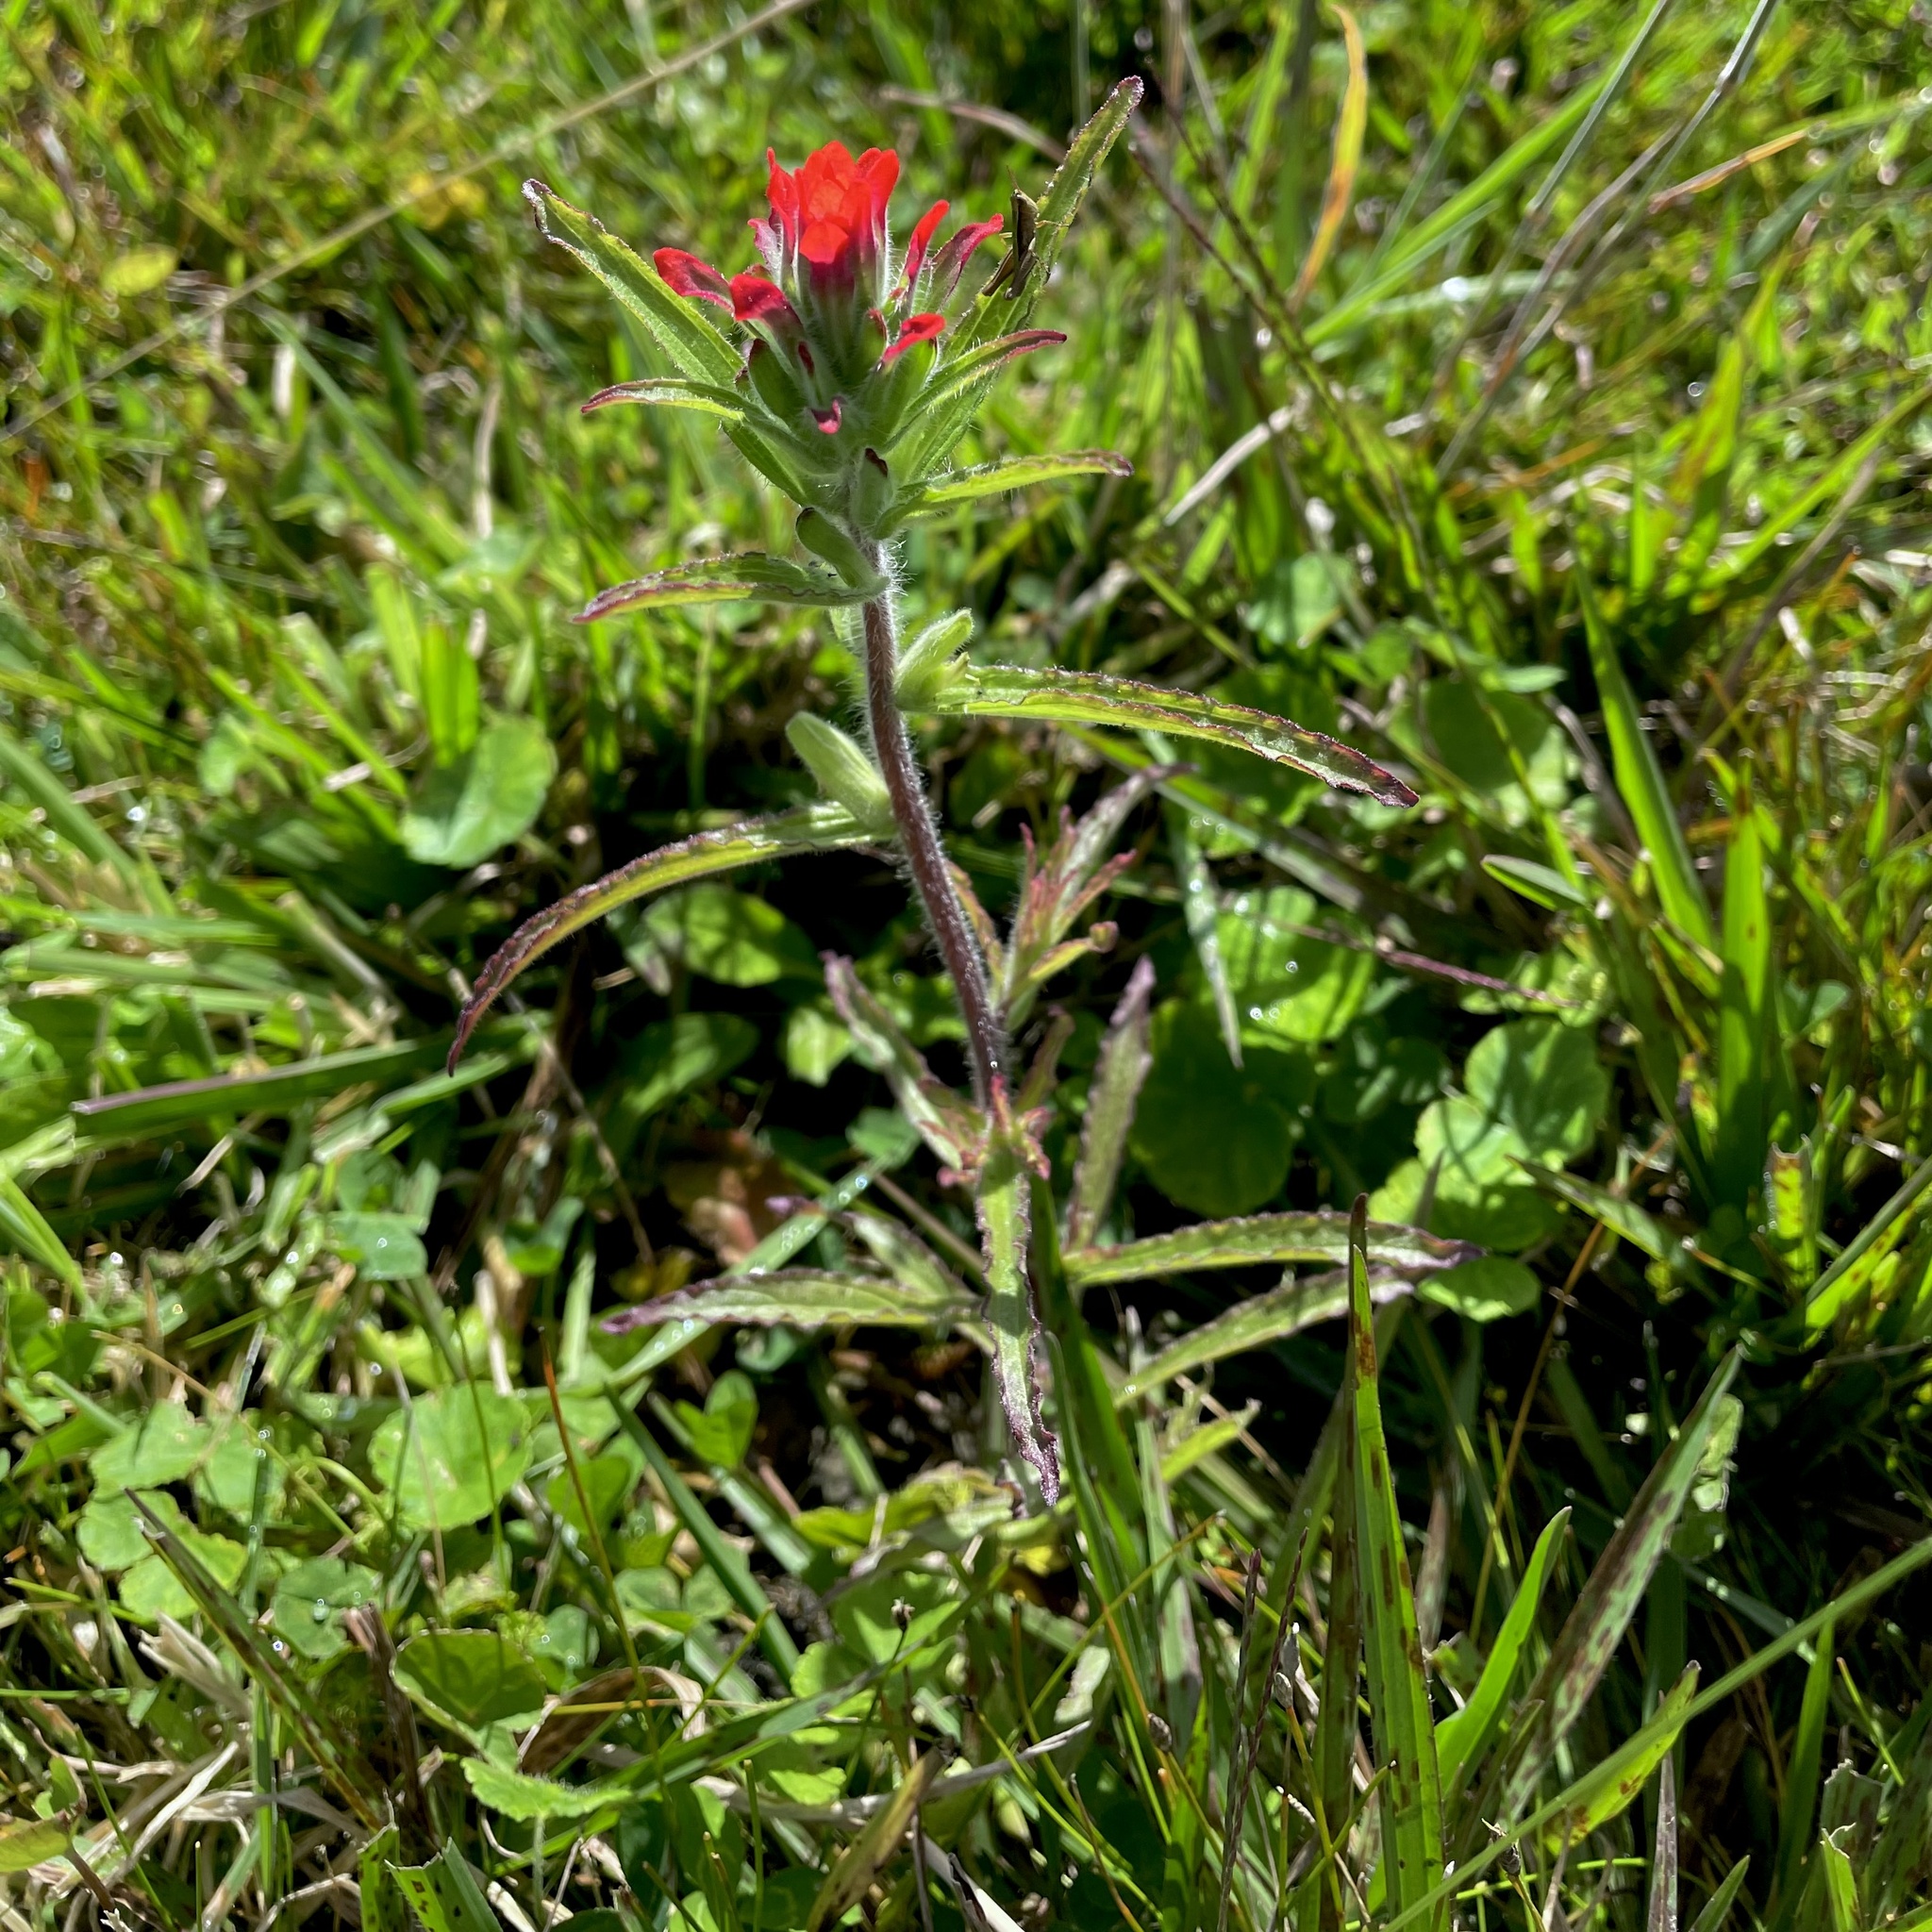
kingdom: Plantae
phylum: Tracheophyta
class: Magnoliopsida
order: Lamiales
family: Orobanchaceae
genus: Castilleja
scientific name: Castilleja arvensis
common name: Indian paintbrush
